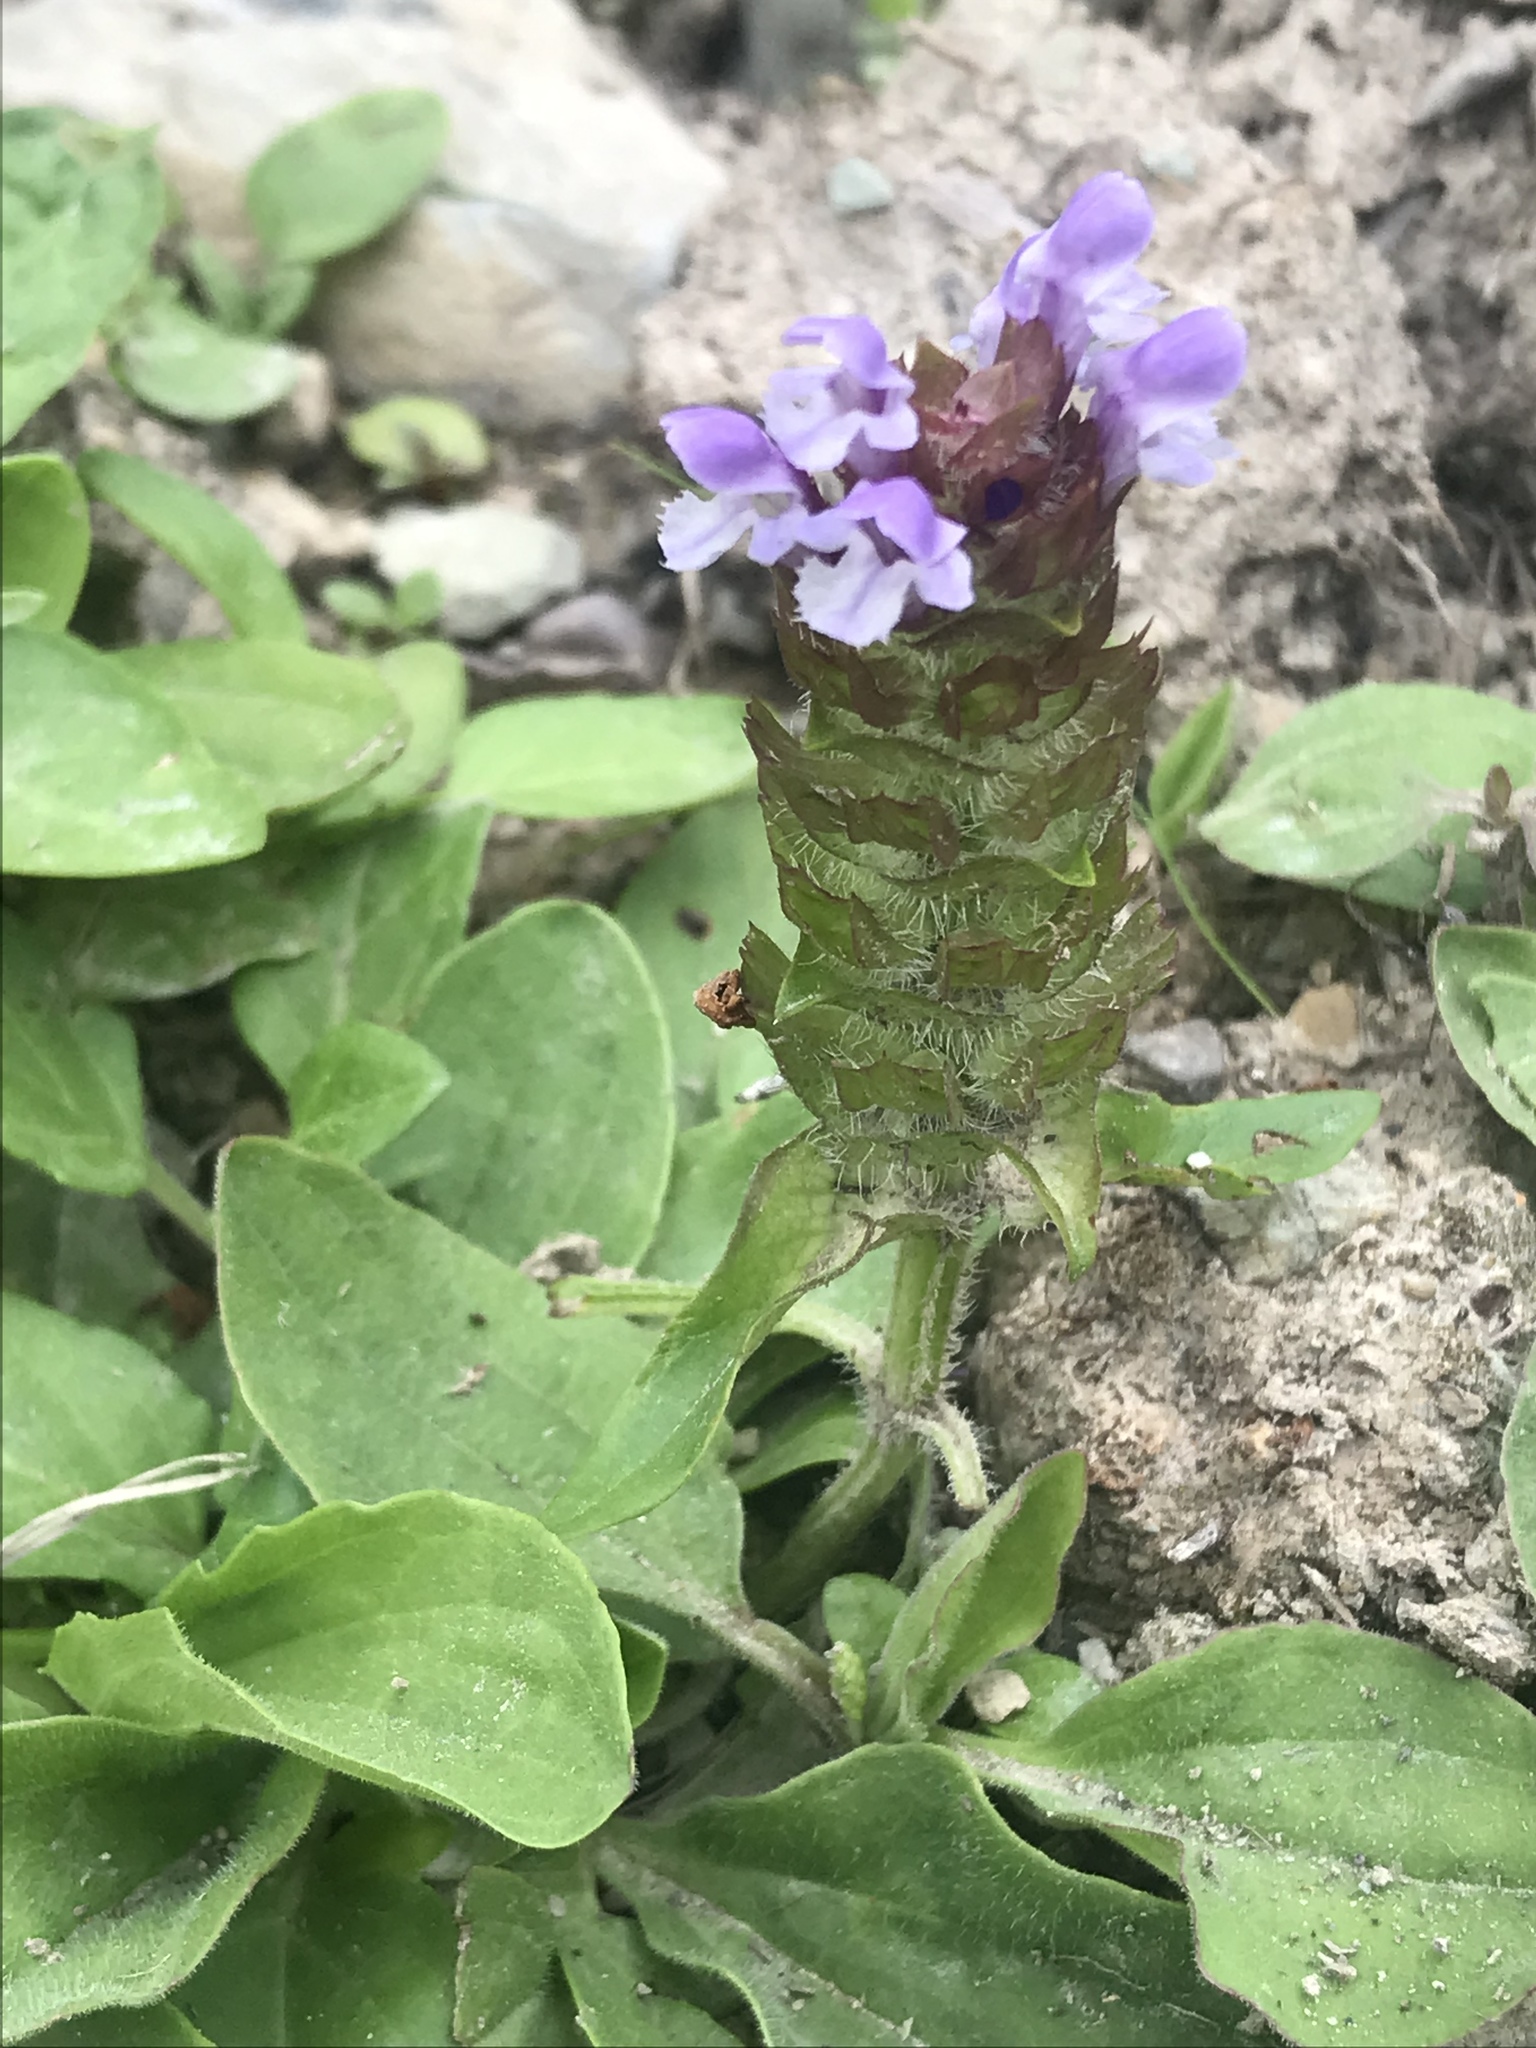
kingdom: Plantae
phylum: Tracheophyta
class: Magnoliopsida
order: Lamiales
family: Lamiaceae
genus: Prunella
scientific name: Prunella vulgaris
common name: Heal-all
